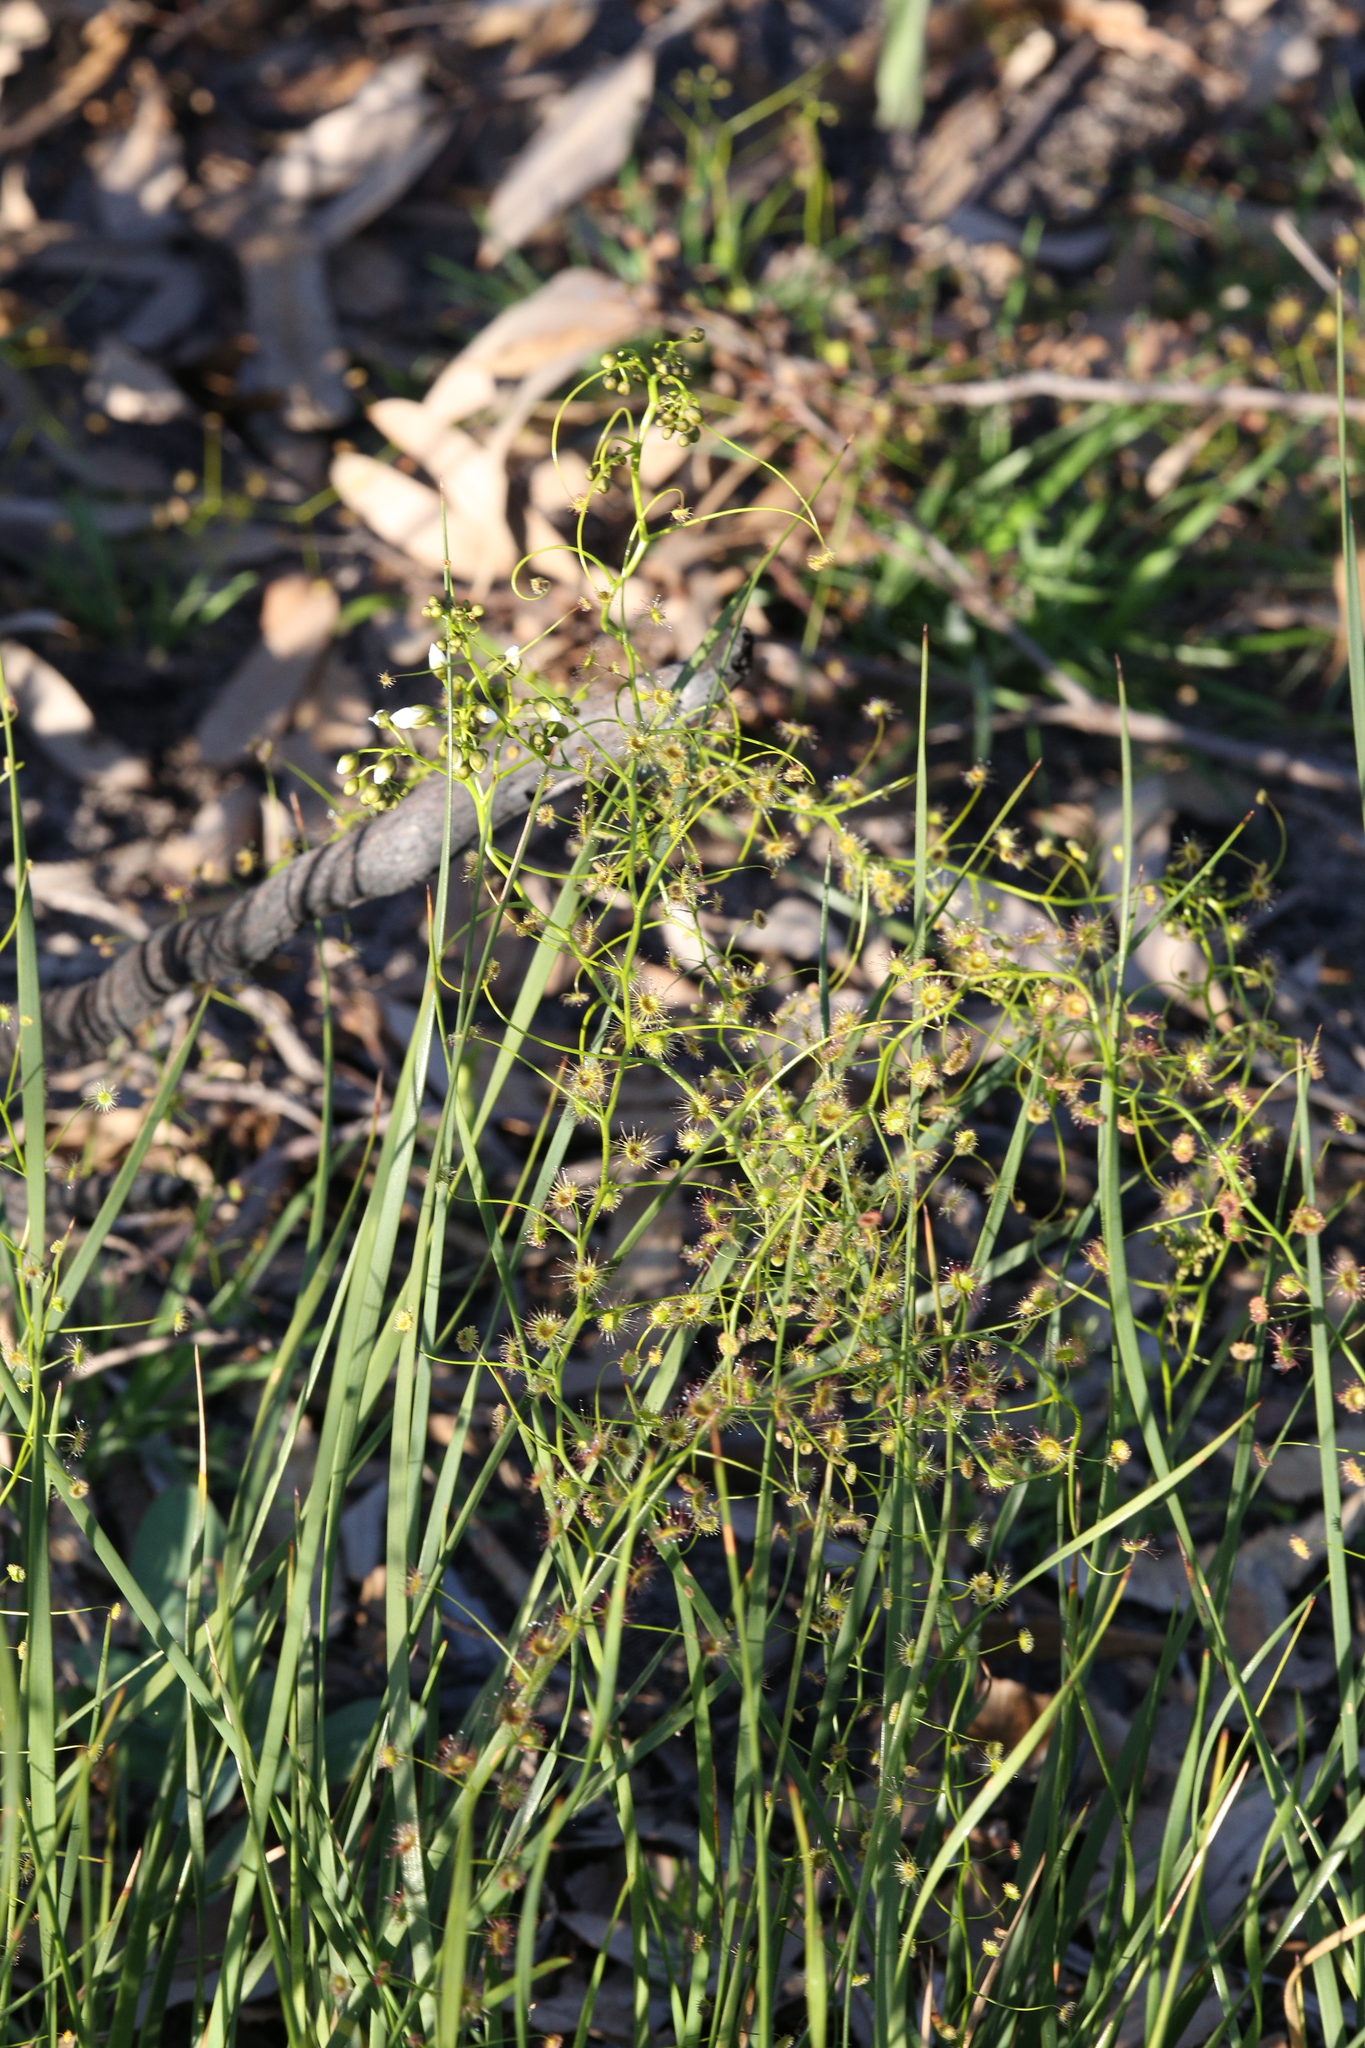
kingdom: Plantae
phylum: Tracheophyta
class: Magnoliopsida
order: Caryophyllales
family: Droseraceae
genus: Drosera
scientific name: Drosera pallida
